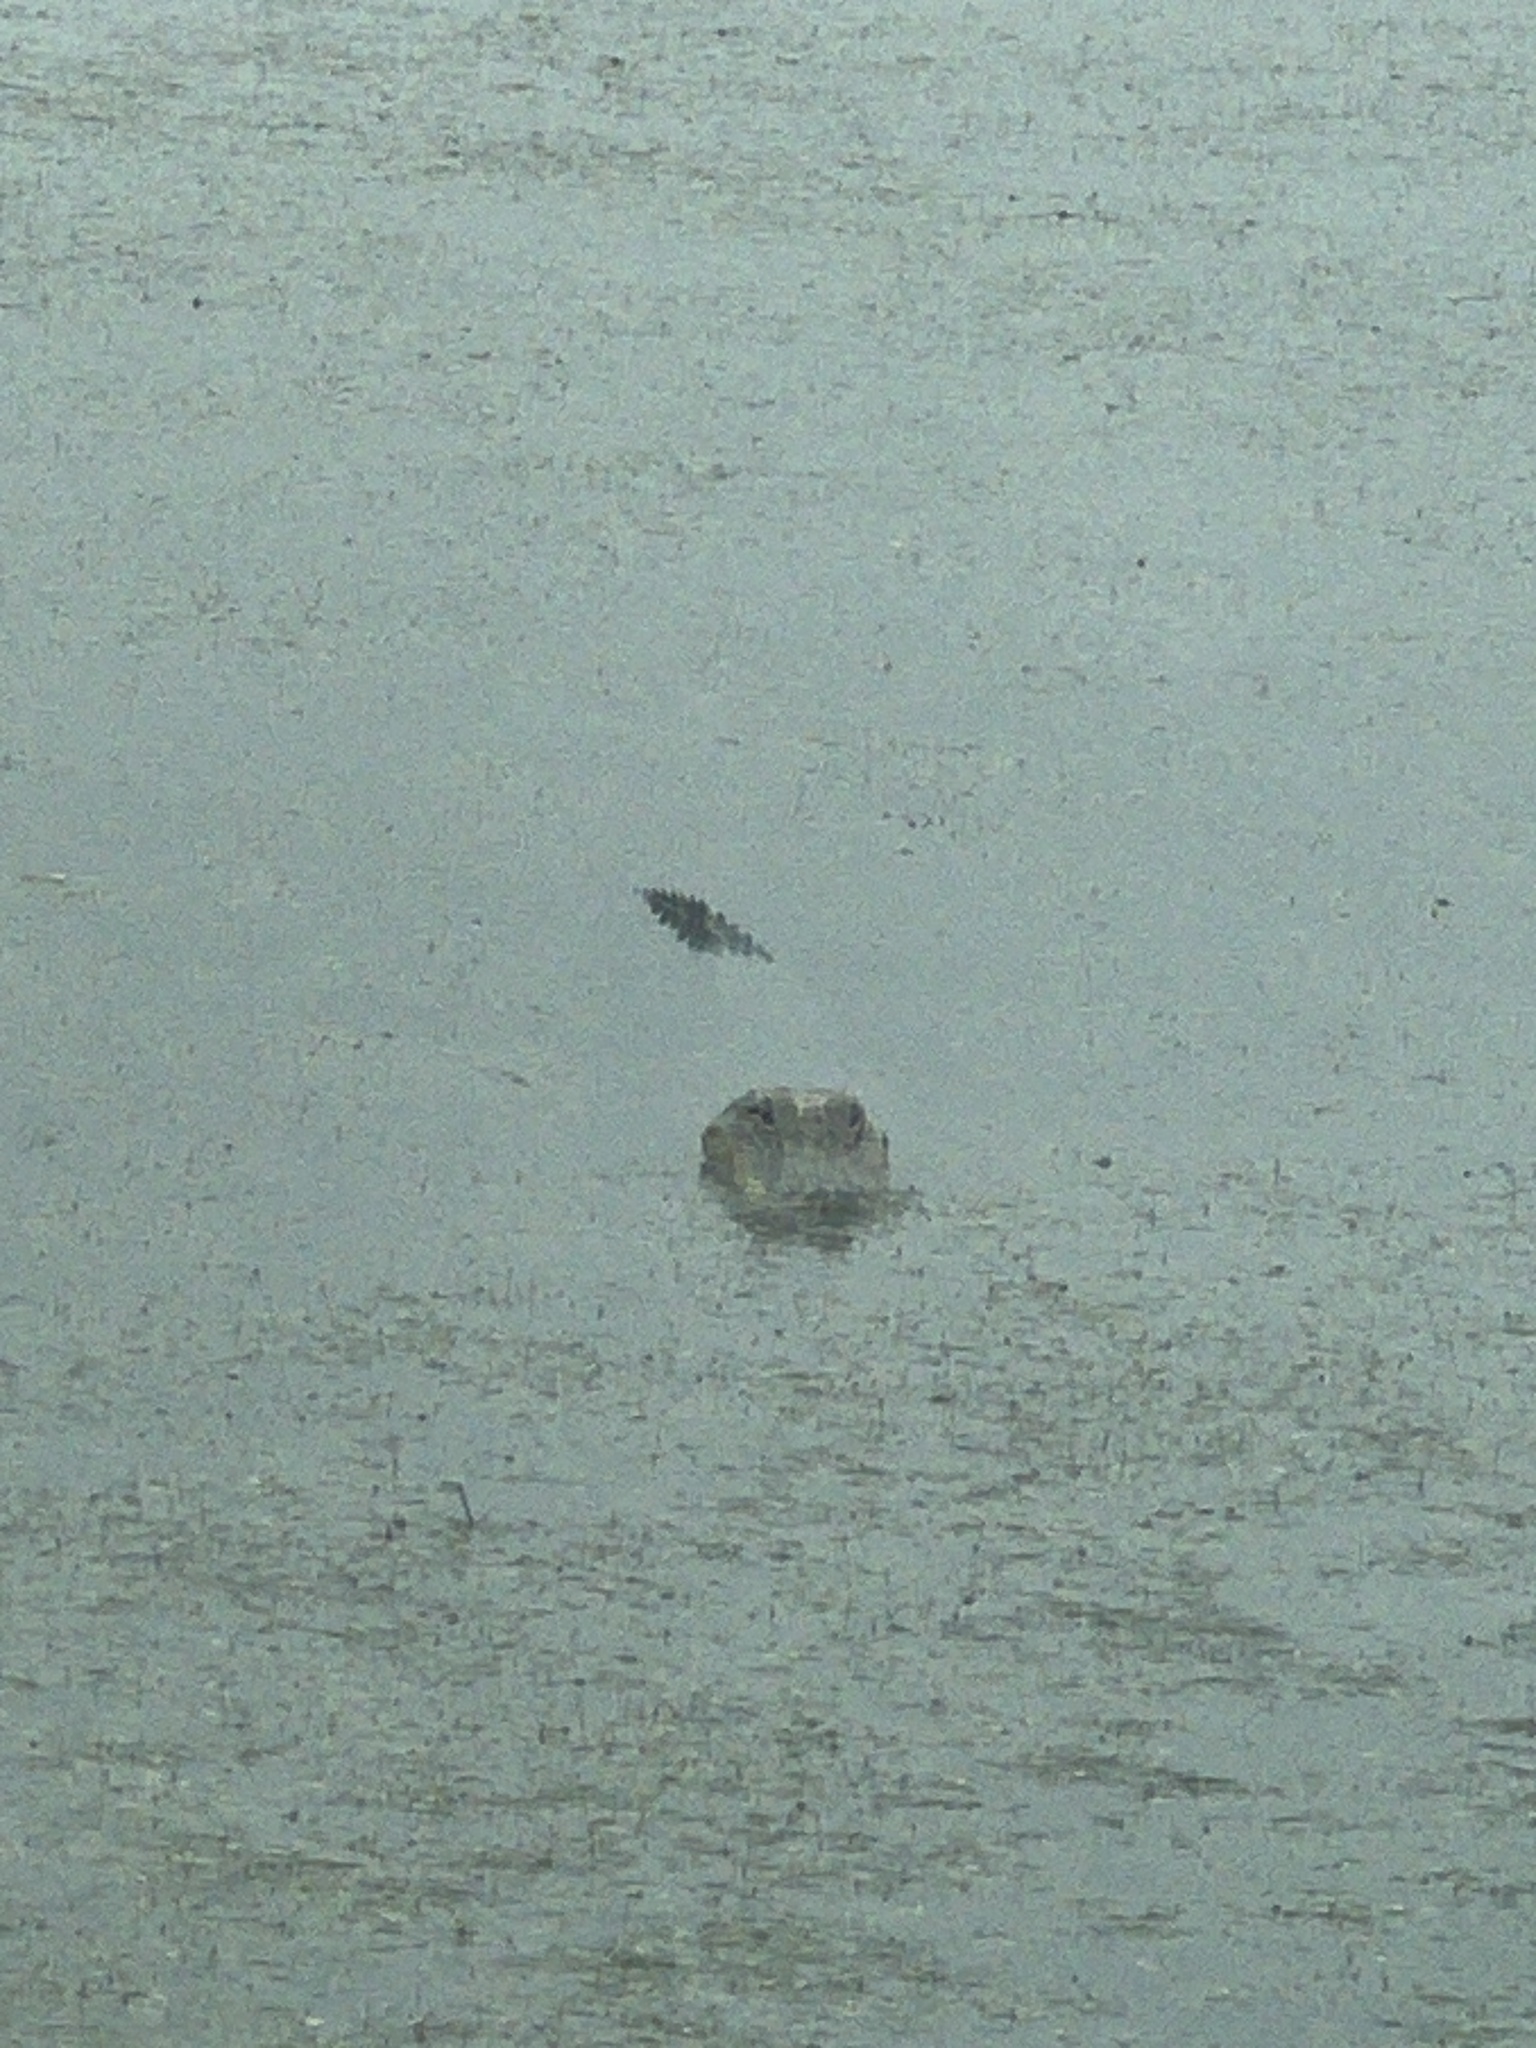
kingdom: Animalia
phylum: Chordata
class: Crocodylia
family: Alligatoridae
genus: Alligator
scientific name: Alligator mississippiensis
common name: American alligator
